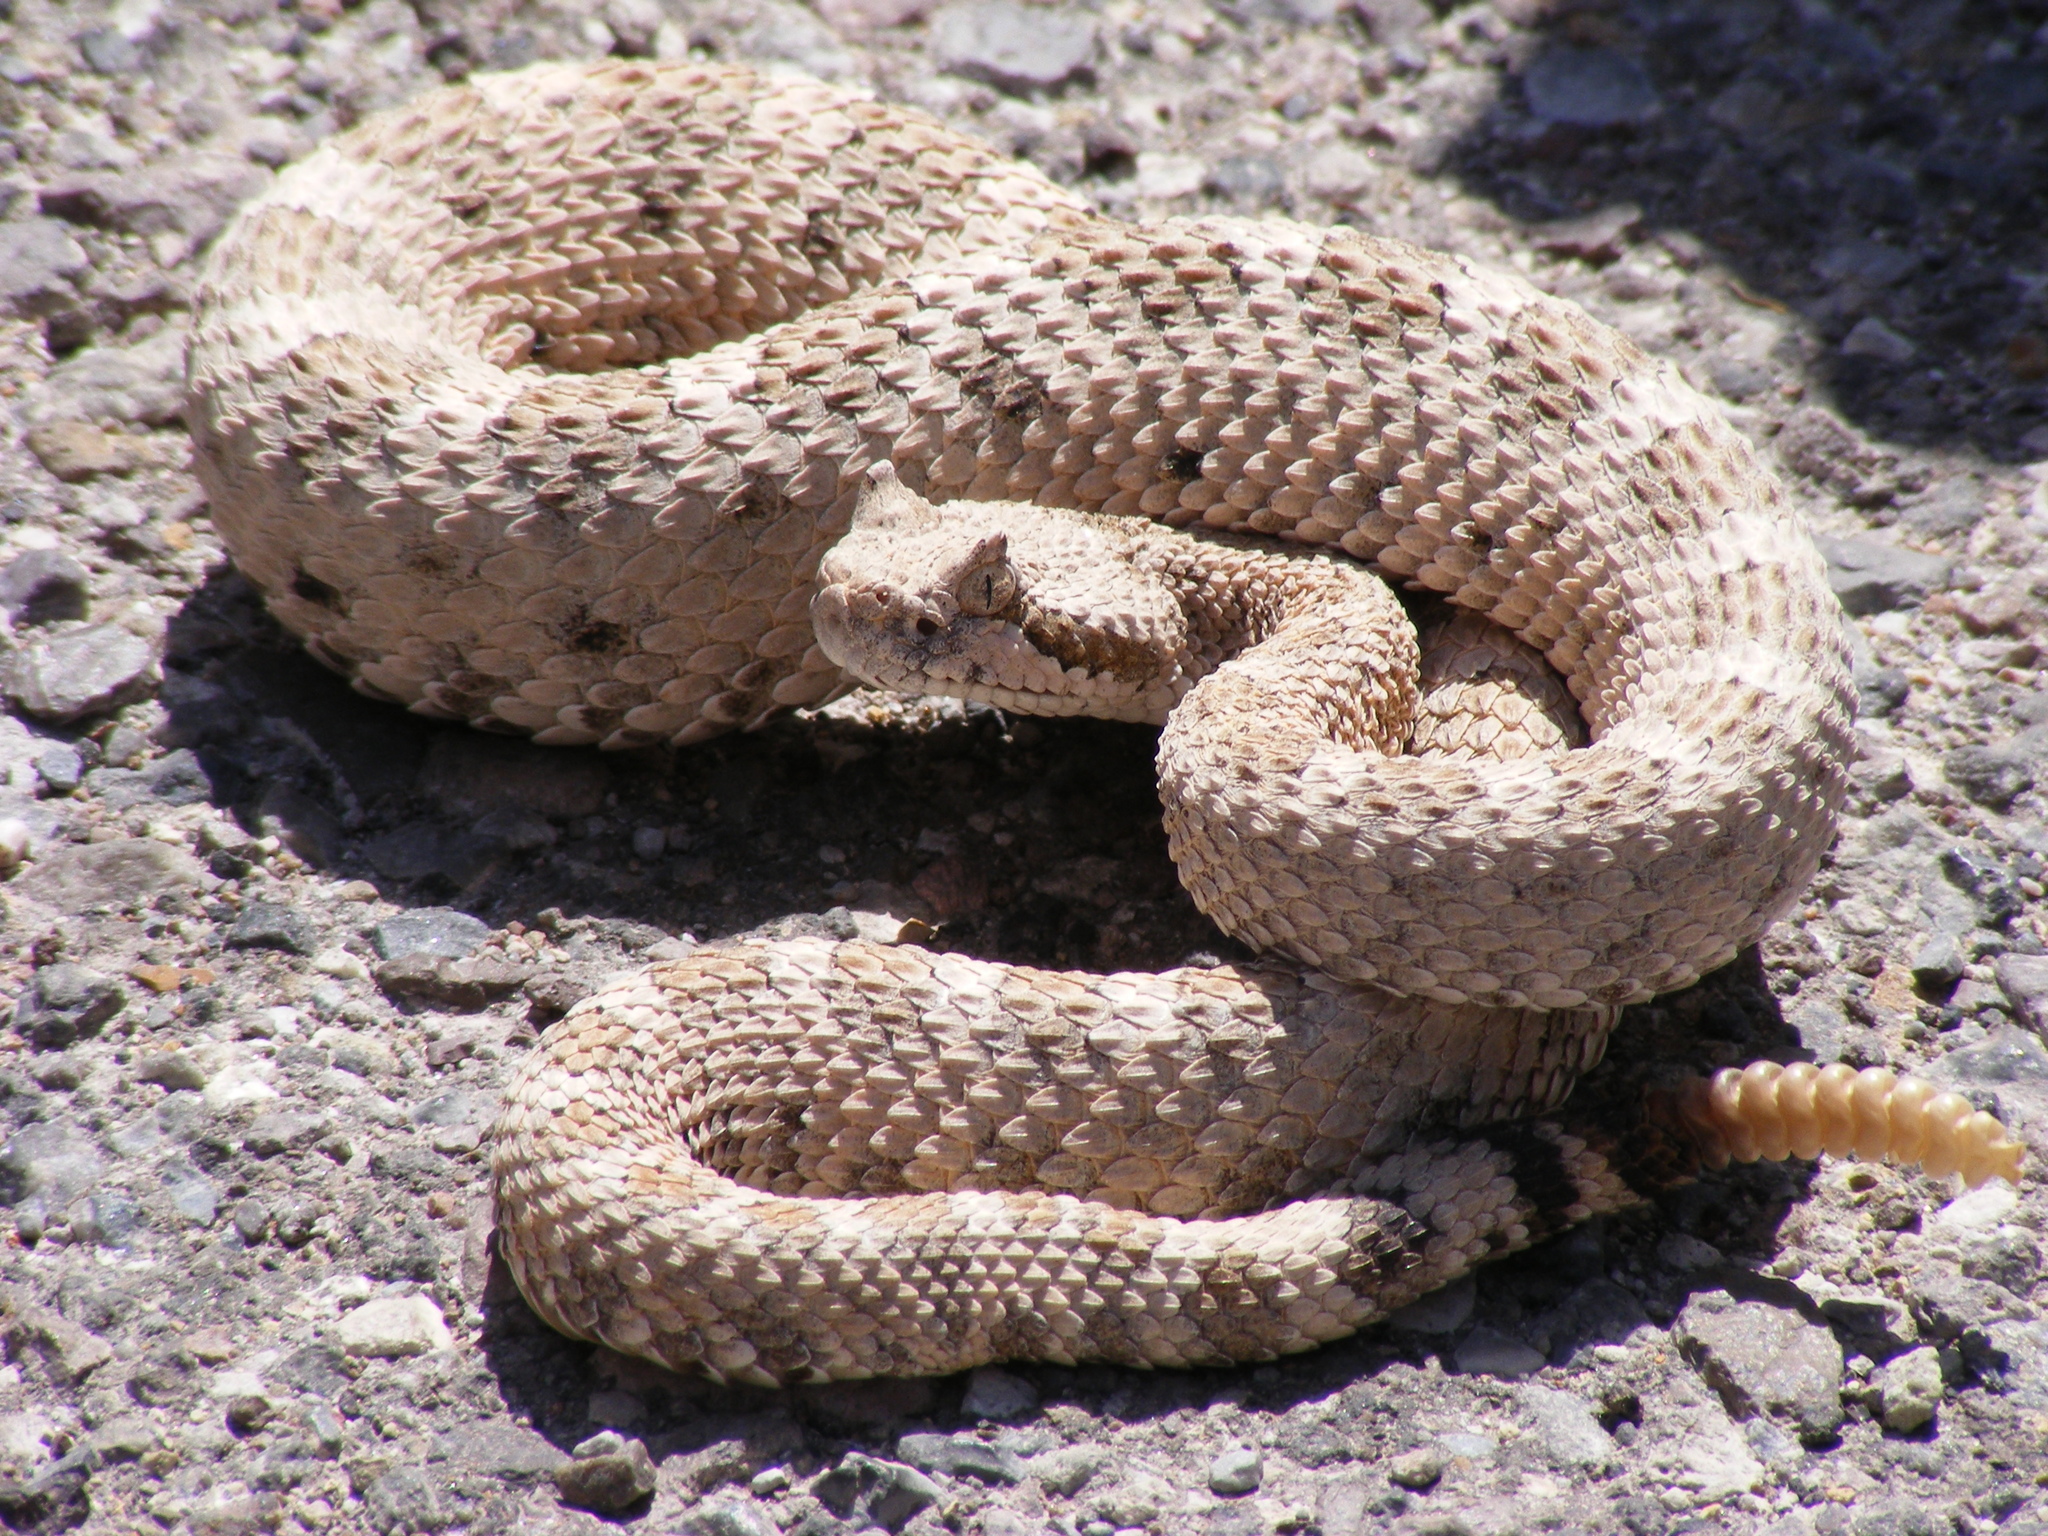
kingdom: Animalia
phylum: Chordata
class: Squamata
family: Viperidae
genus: Crotalus
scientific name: Crotalus cerastes
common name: Sidewinder
